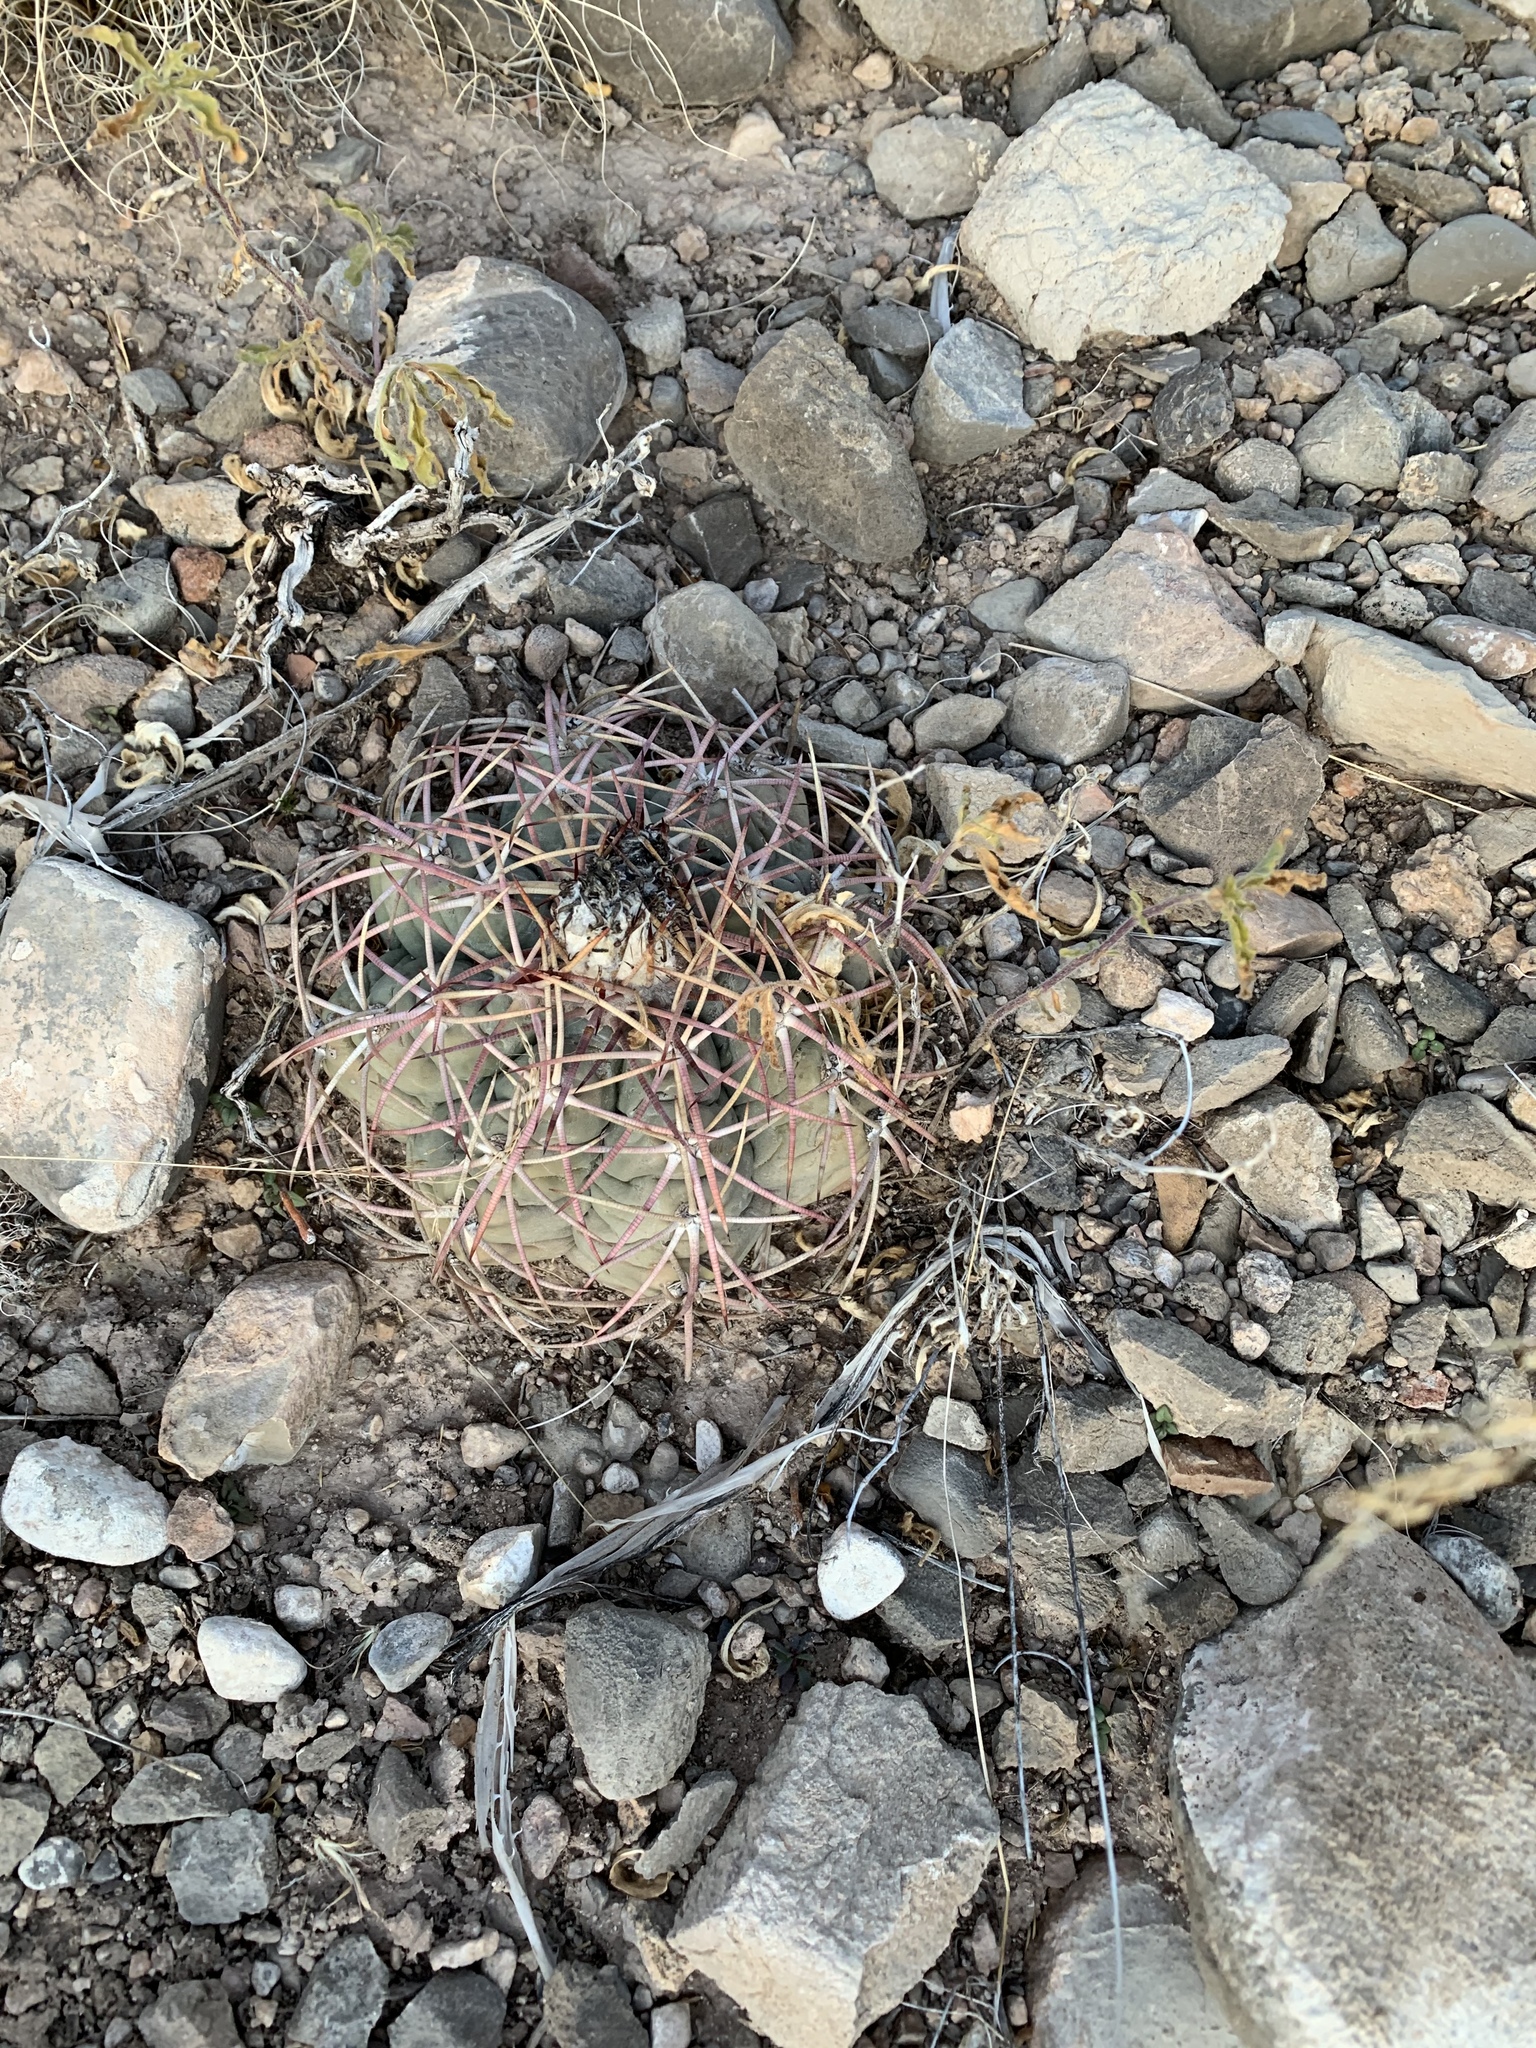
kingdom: Plantae
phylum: Tracheophyta
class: Magnoliopsida
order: Caryophyllales
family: Cactaceae
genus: Echinocactus
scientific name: Echinocactus horizonthalonius
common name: Devilshead
